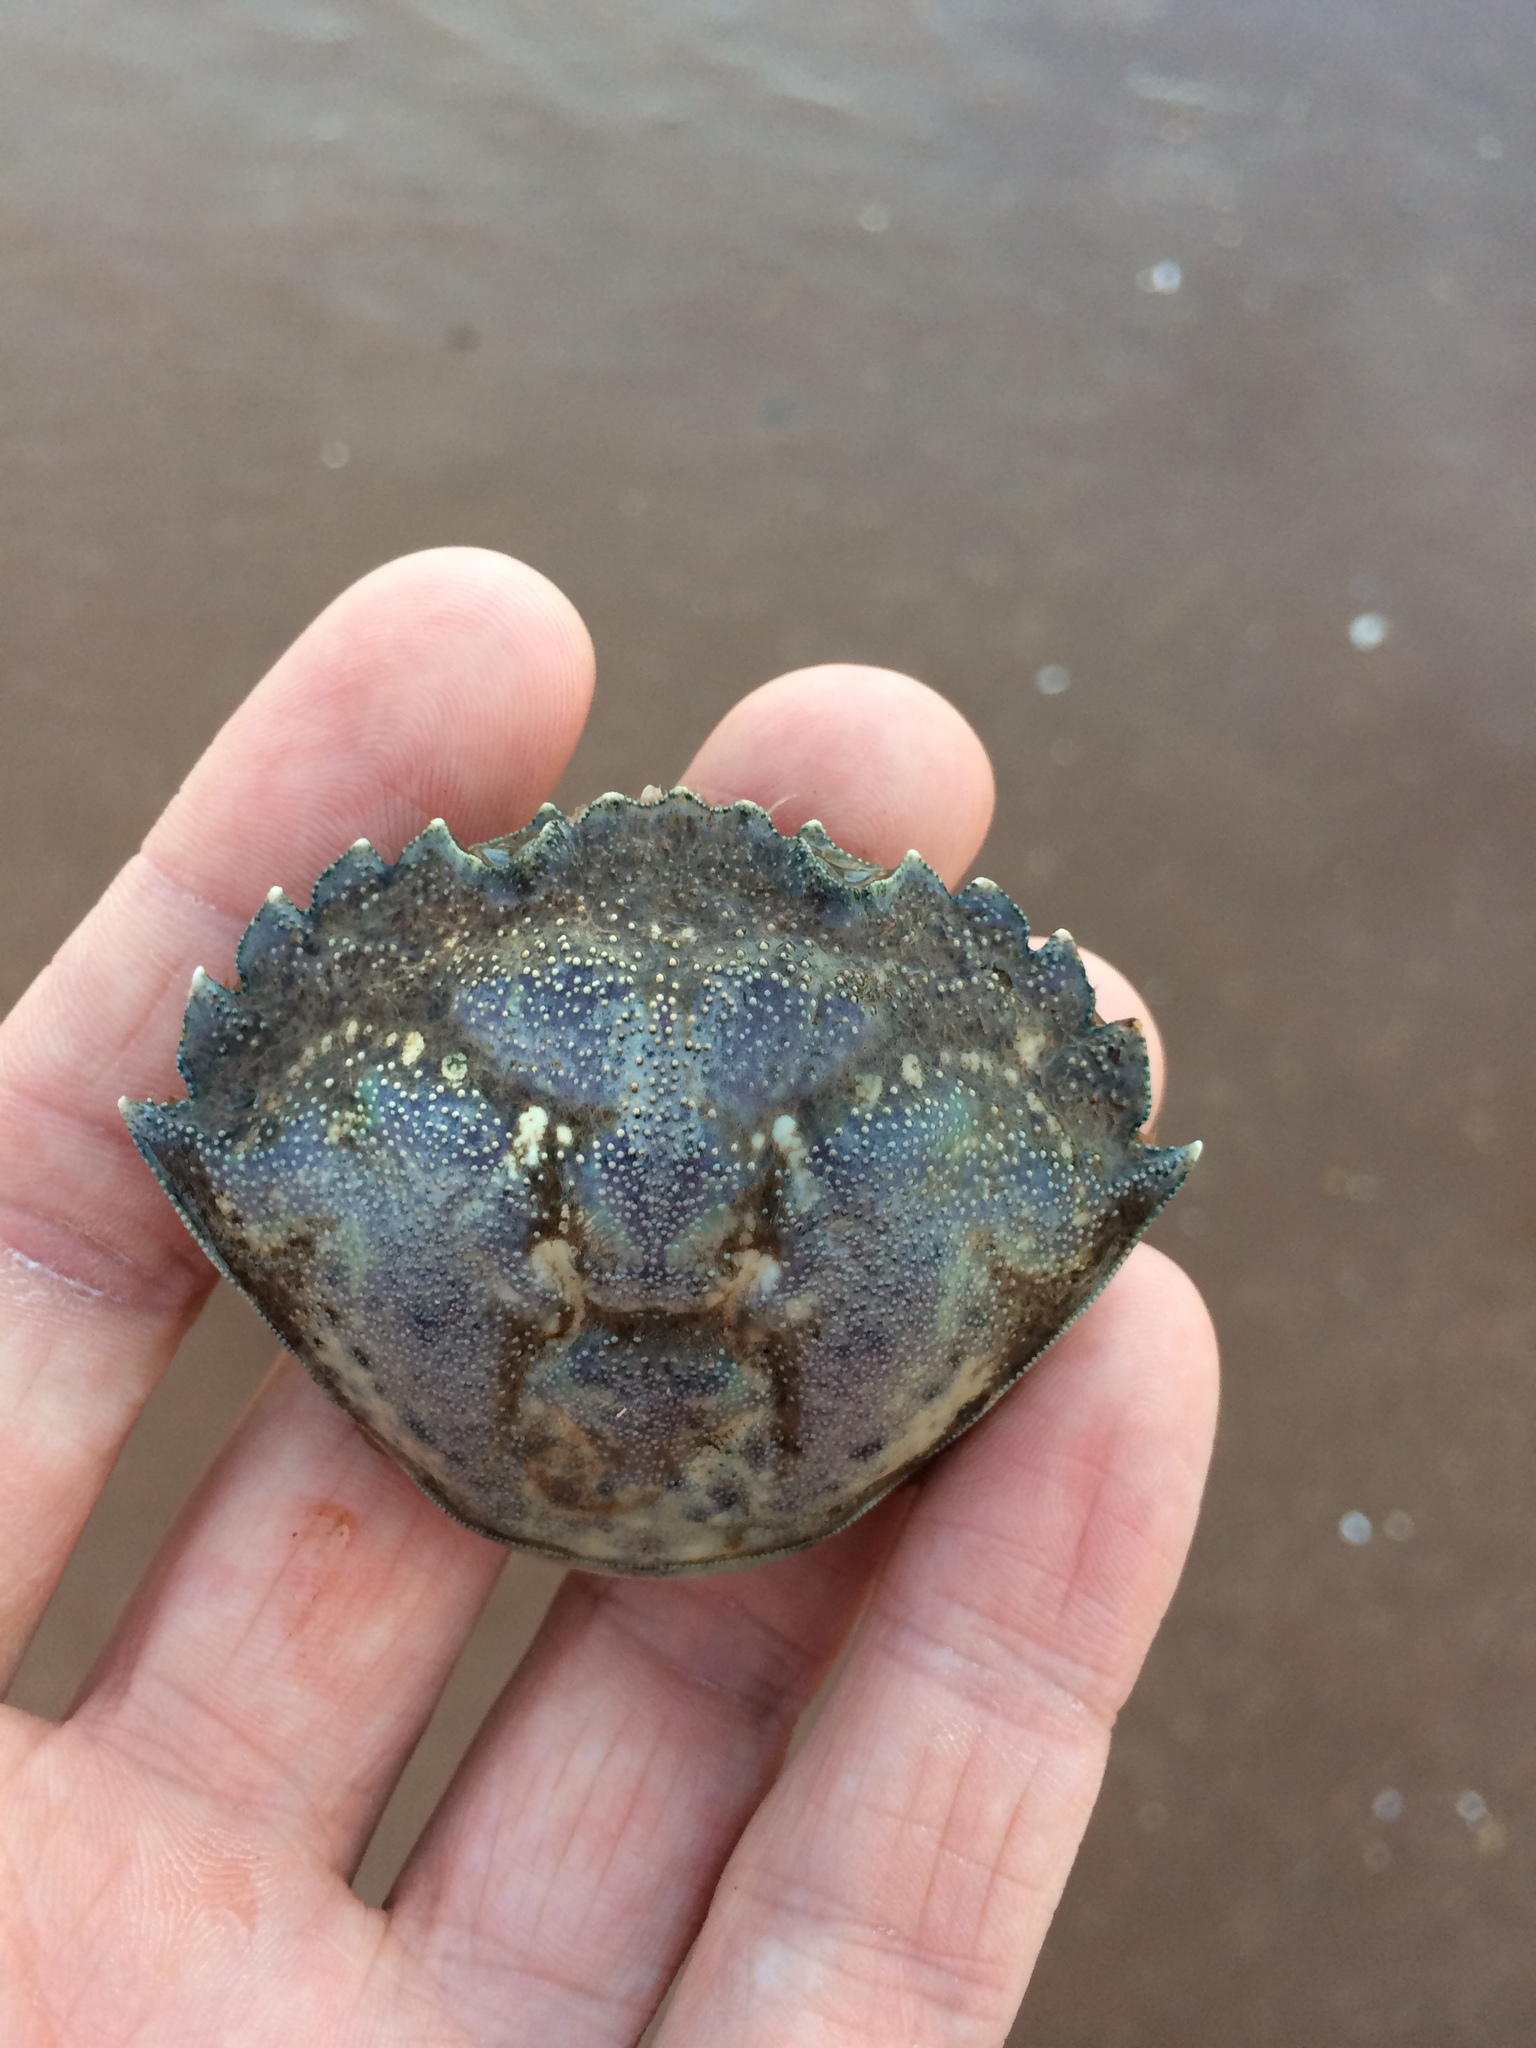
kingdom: Animalia
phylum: Arthropoda
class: Malacostraca
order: Decapoda
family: Carcinidae
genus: Carcinus
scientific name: Carcinus maenas
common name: European green crab
